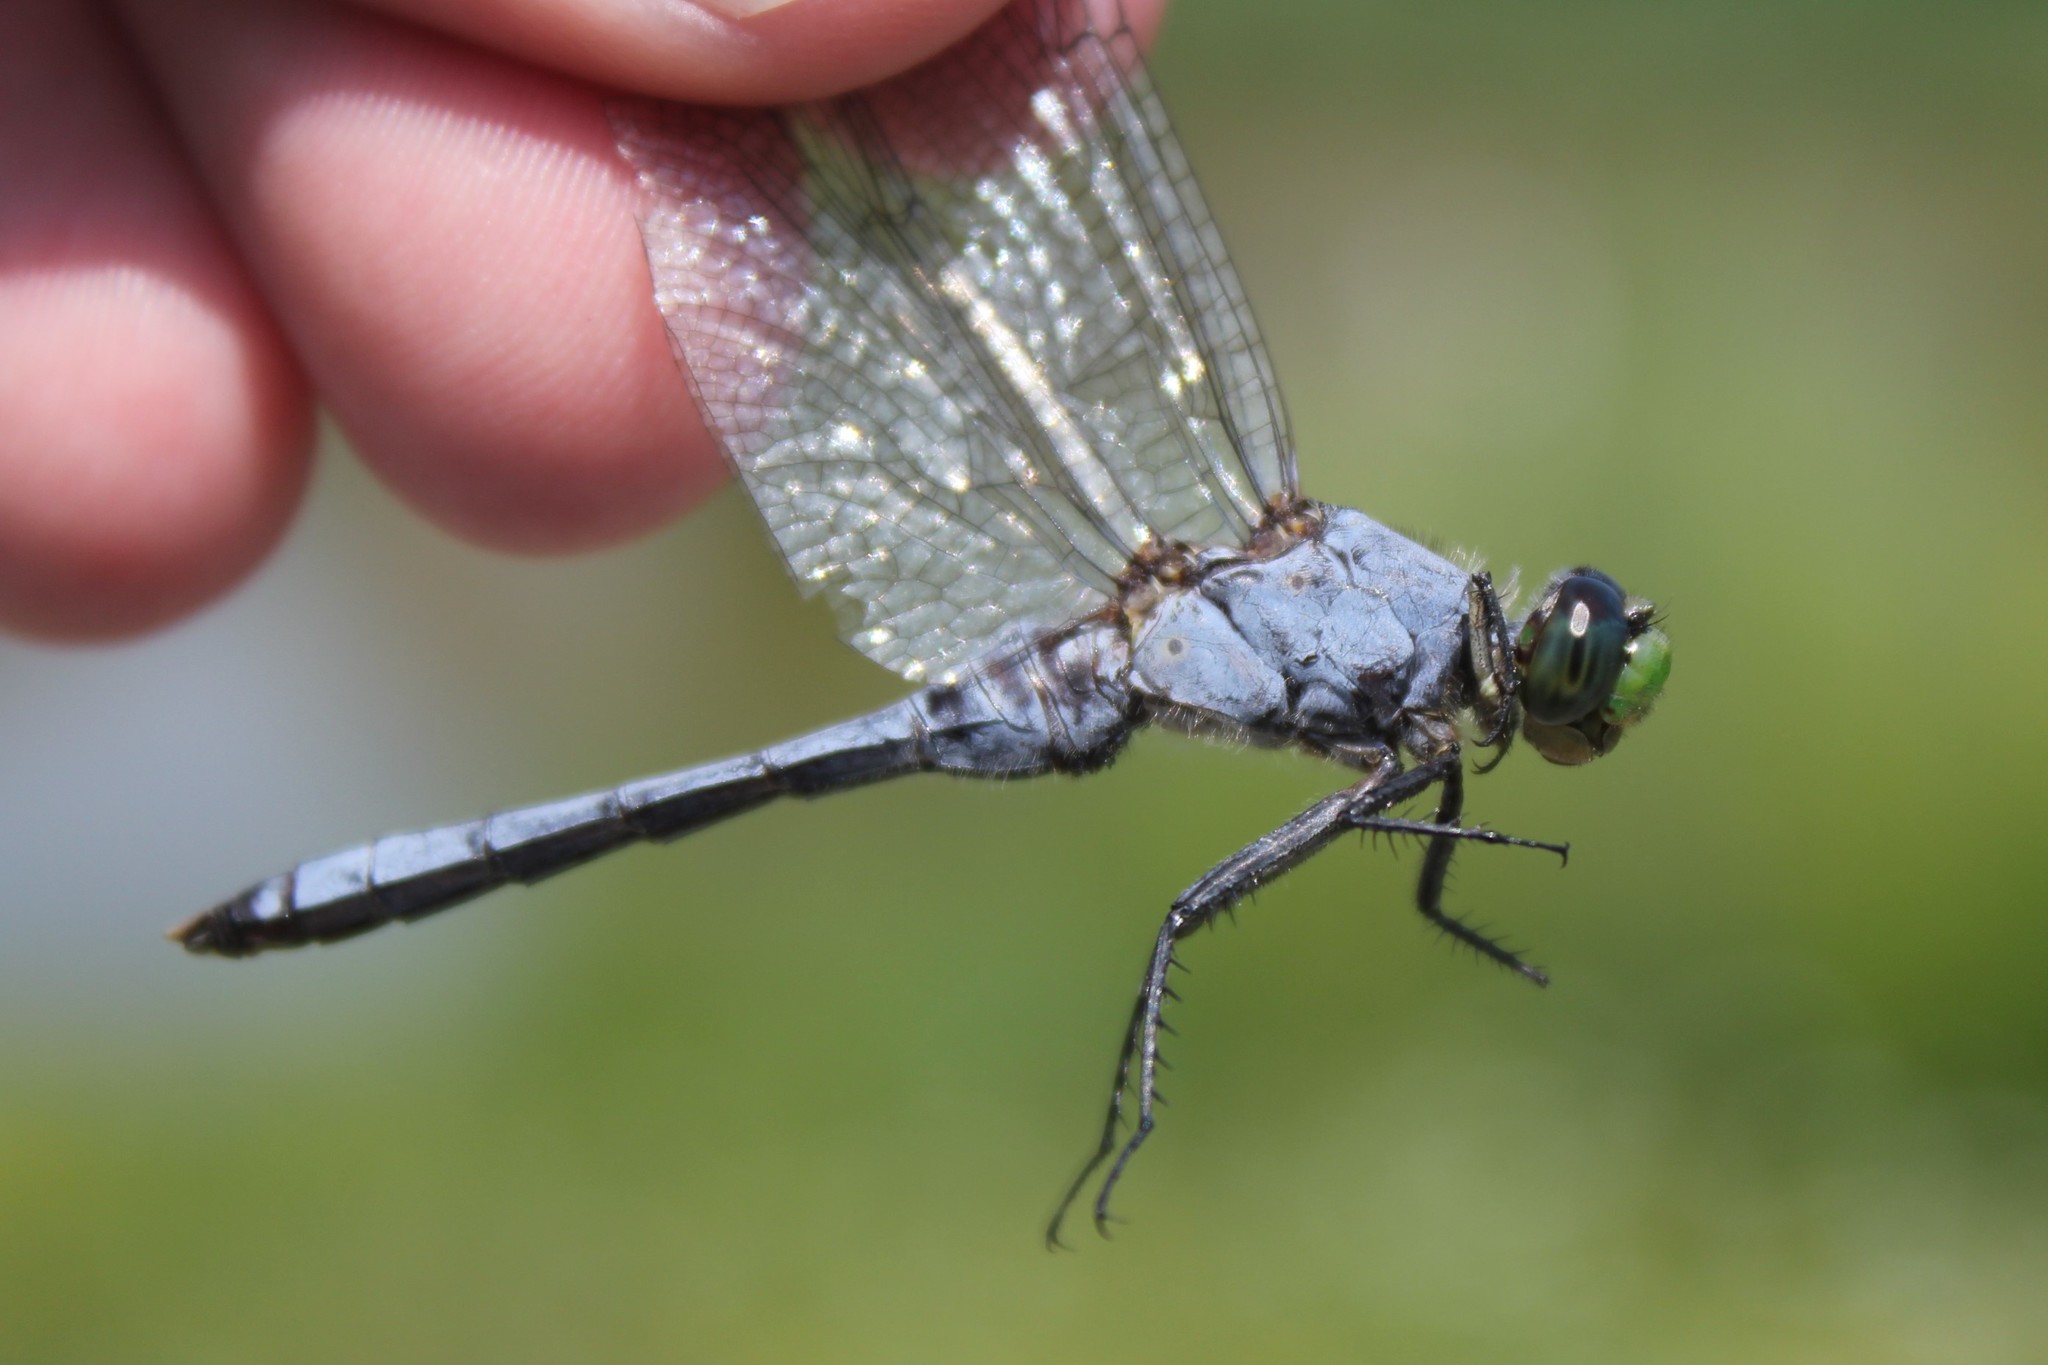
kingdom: Animalia
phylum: Arthropoda
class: Insecta
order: Odonata
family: Libellulidae
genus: Erythemis
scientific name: Erythemis simplicicollis
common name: Eastern pondhawk
